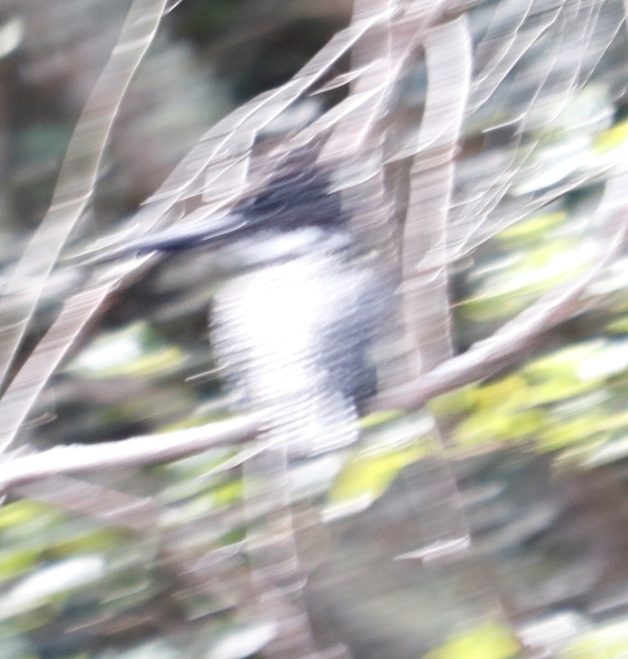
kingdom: Animalia
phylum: Chordata
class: Aves
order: Coraciiformes
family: Alcedinidae
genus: Megaceryle
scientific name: Megaceryle maxima
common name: Giant kingfisher
